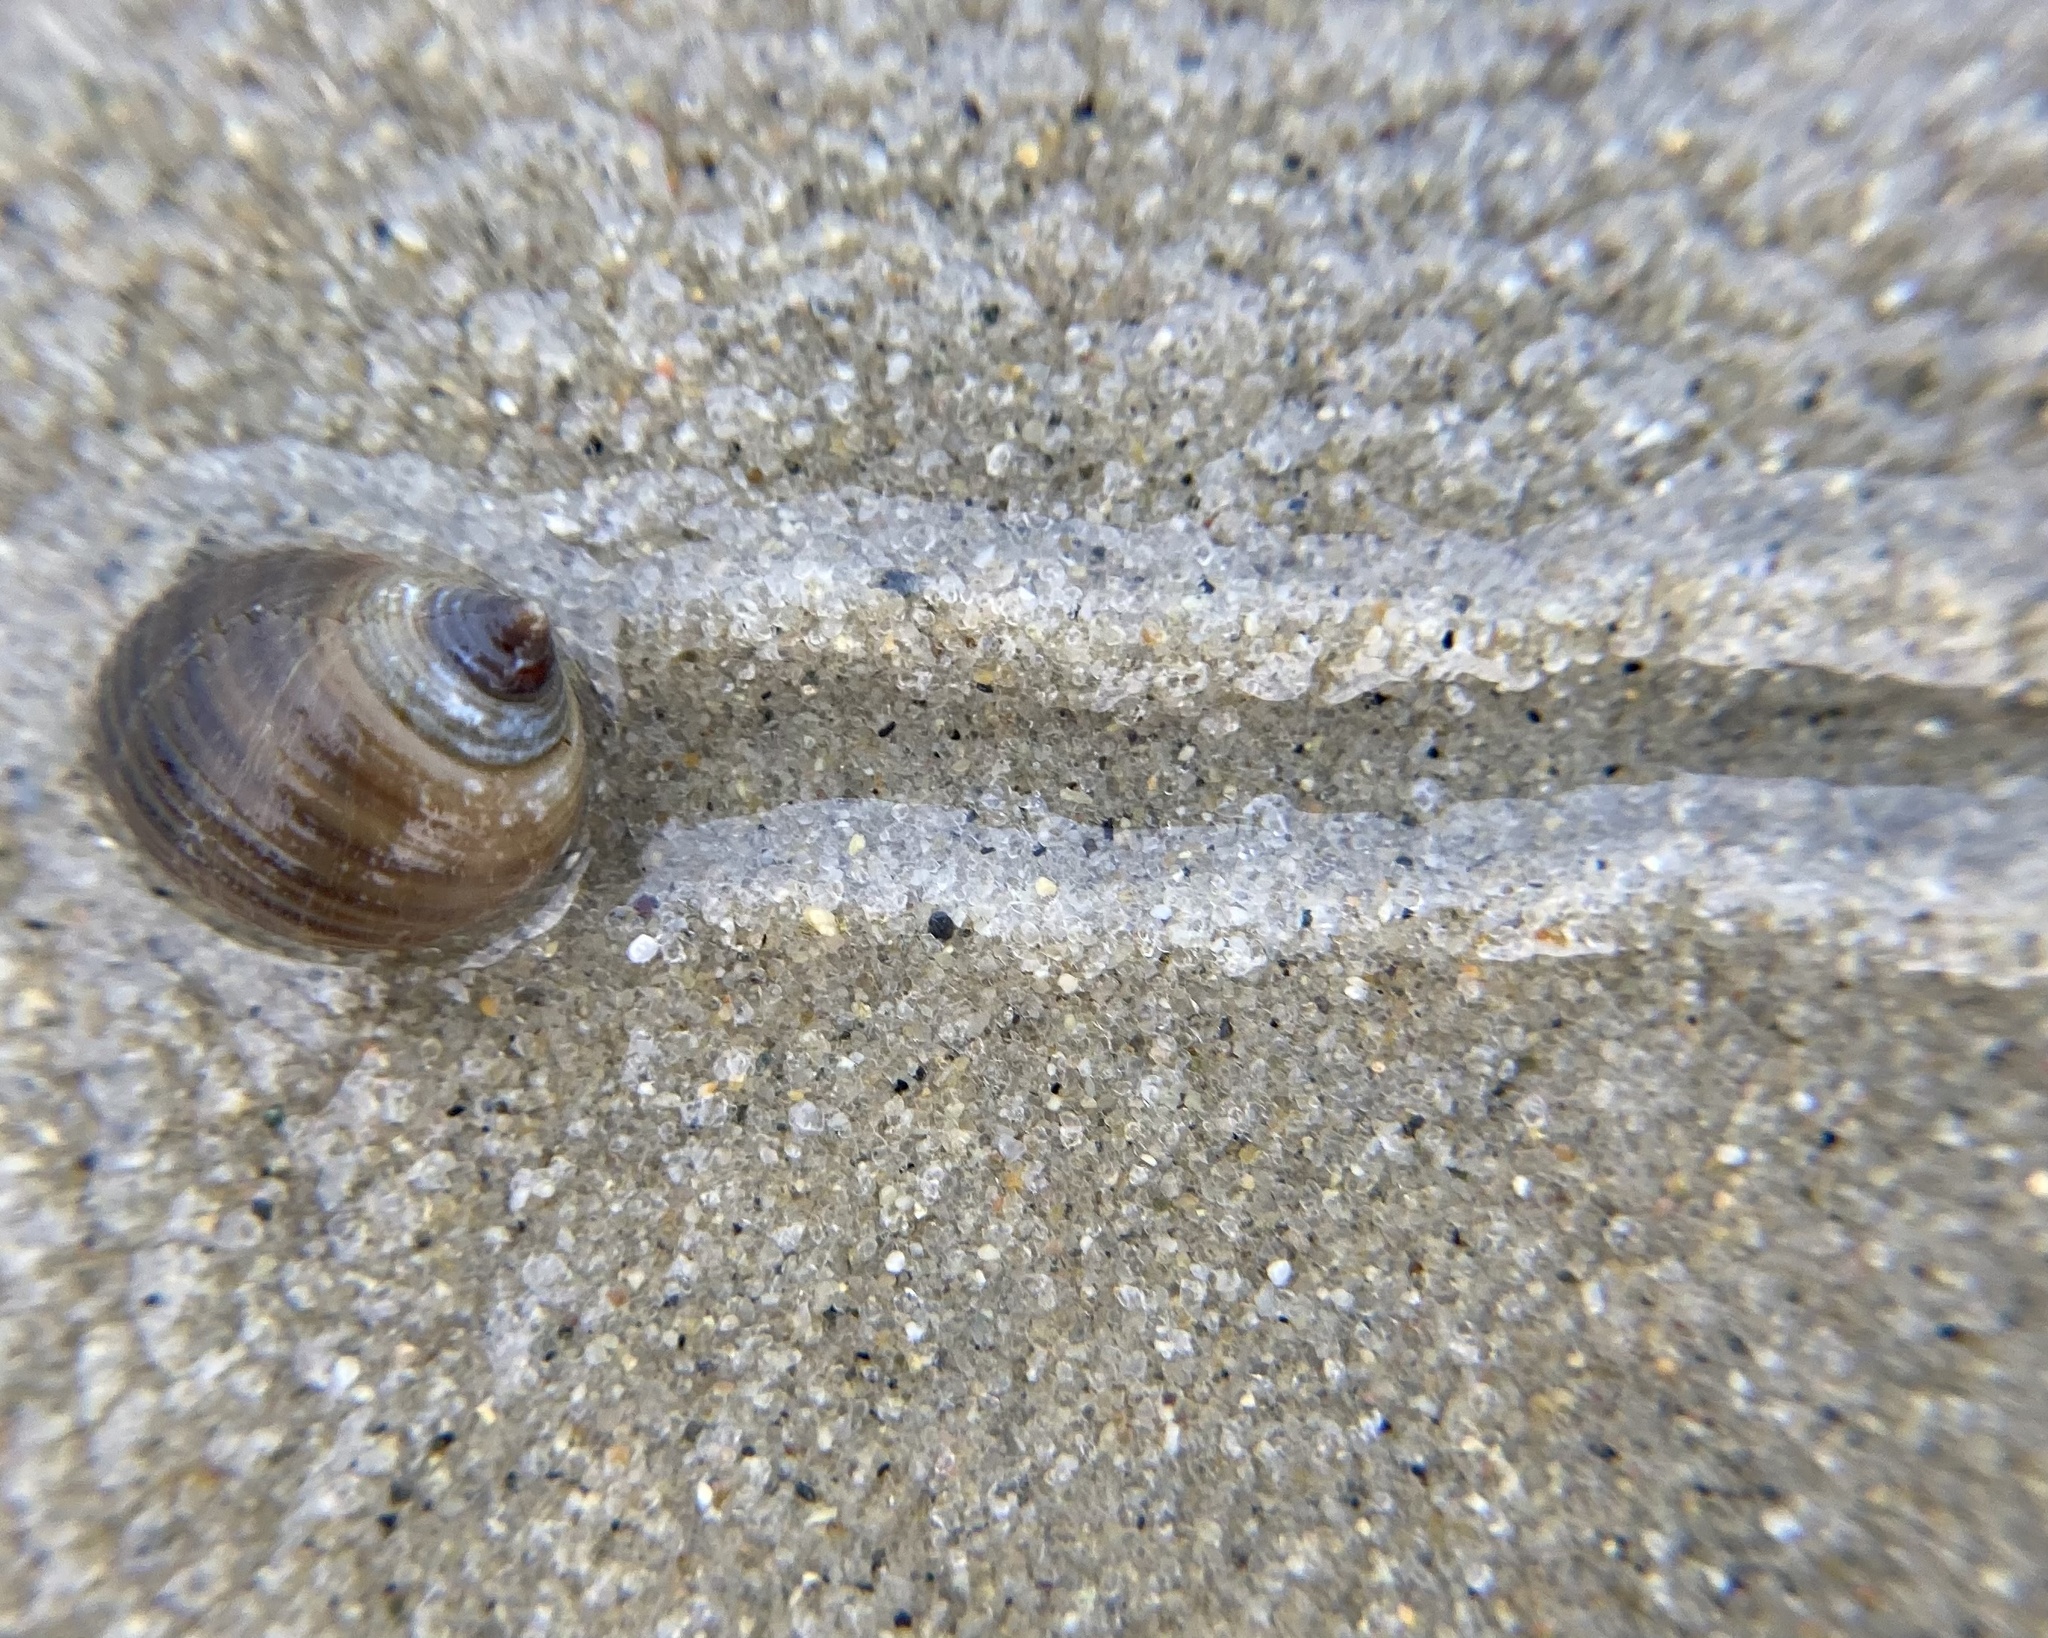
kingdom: Animalia
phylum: Mollusca
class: Gastropoda
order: Littorinimorpha
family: Littorinidae
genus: Littorina
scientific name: Littorina littorea
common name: Common periwinkle
